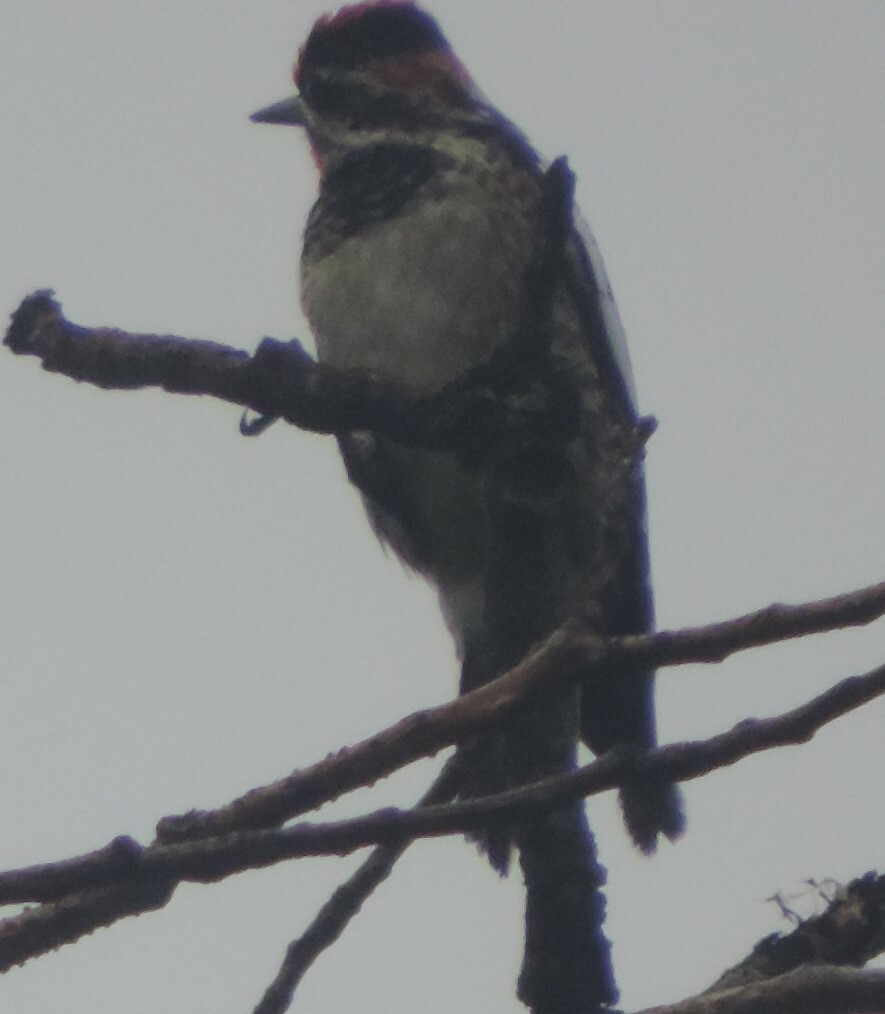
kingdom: Animalia
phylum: Chordata
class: Aves
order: Piciformes
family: Picidae
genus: Sphyrapicus
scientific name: Sphyrapicus nuchalis
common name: Red-naped sapsucker
